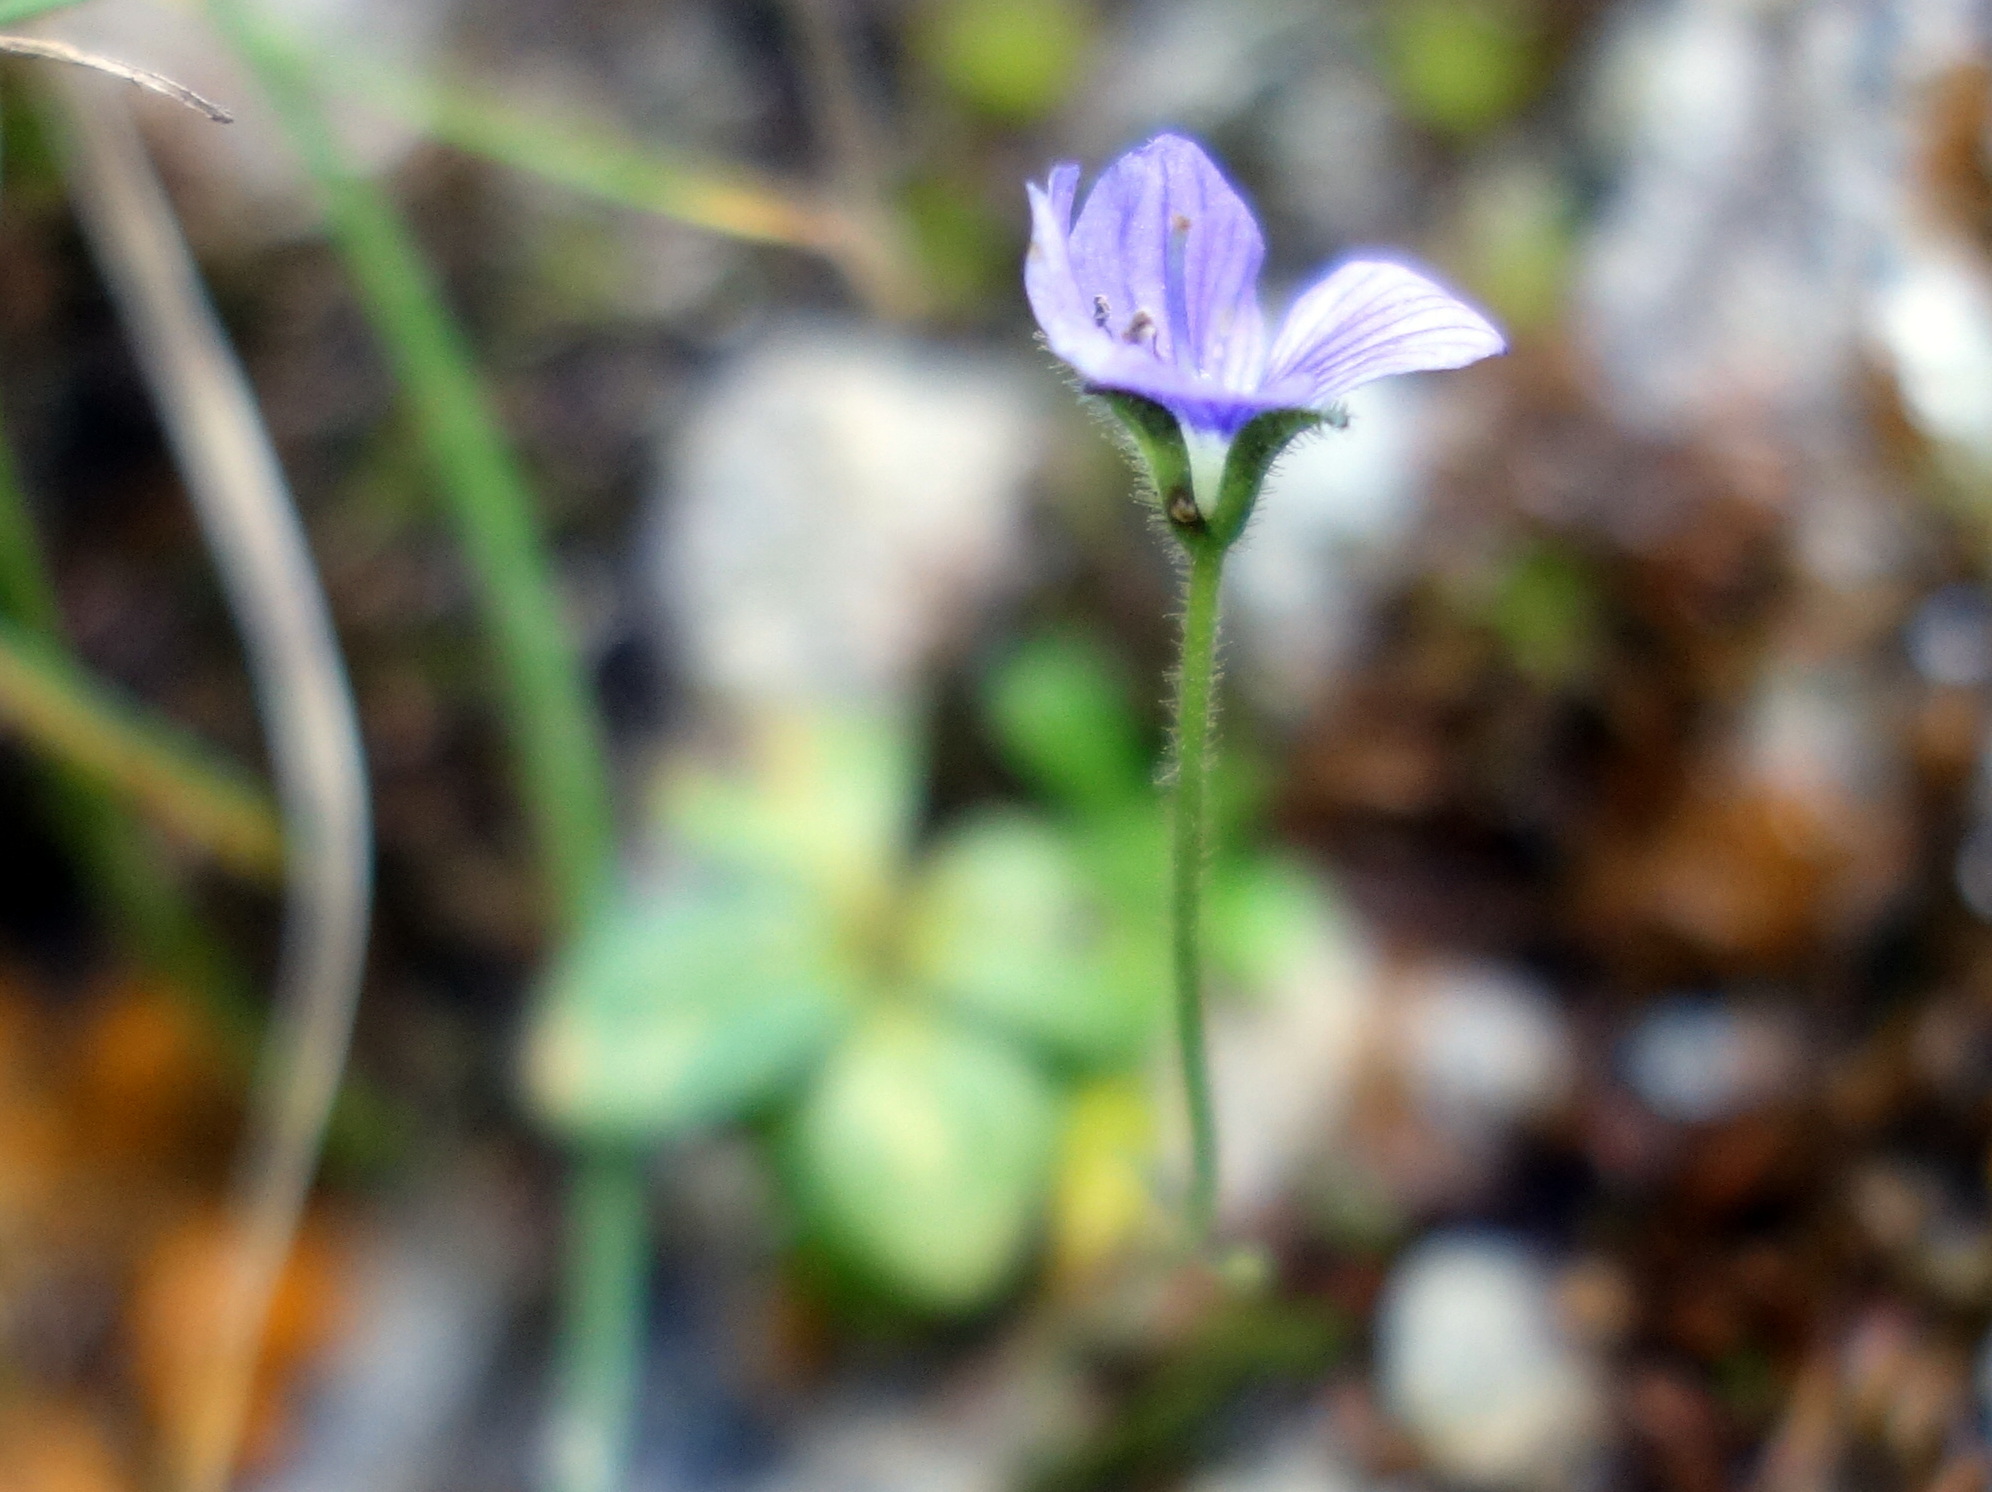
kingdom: Plantae
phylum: Tracheophyta
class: Magnoliopsida
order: Lamiales
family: Plantaginaceae
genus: Veronica
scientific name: Veronica aphylla
